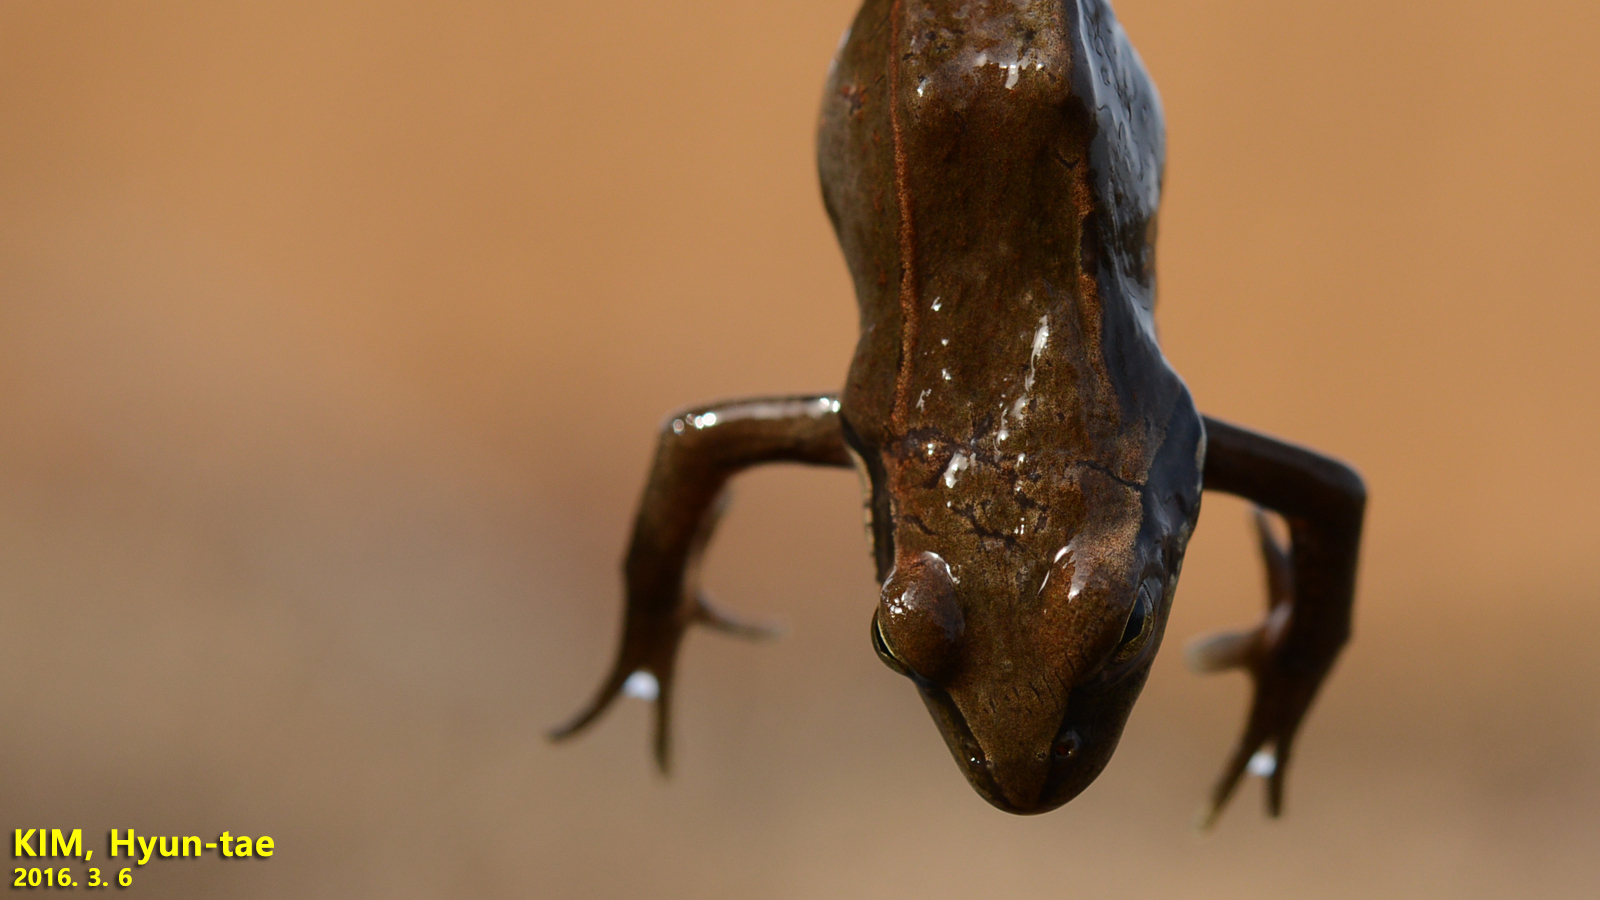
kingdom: Animalia
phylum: Chordata
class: Amphibia
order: Anura
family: Ranidae
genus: Rana
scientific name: Rana coreana
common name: Korean brown frog
